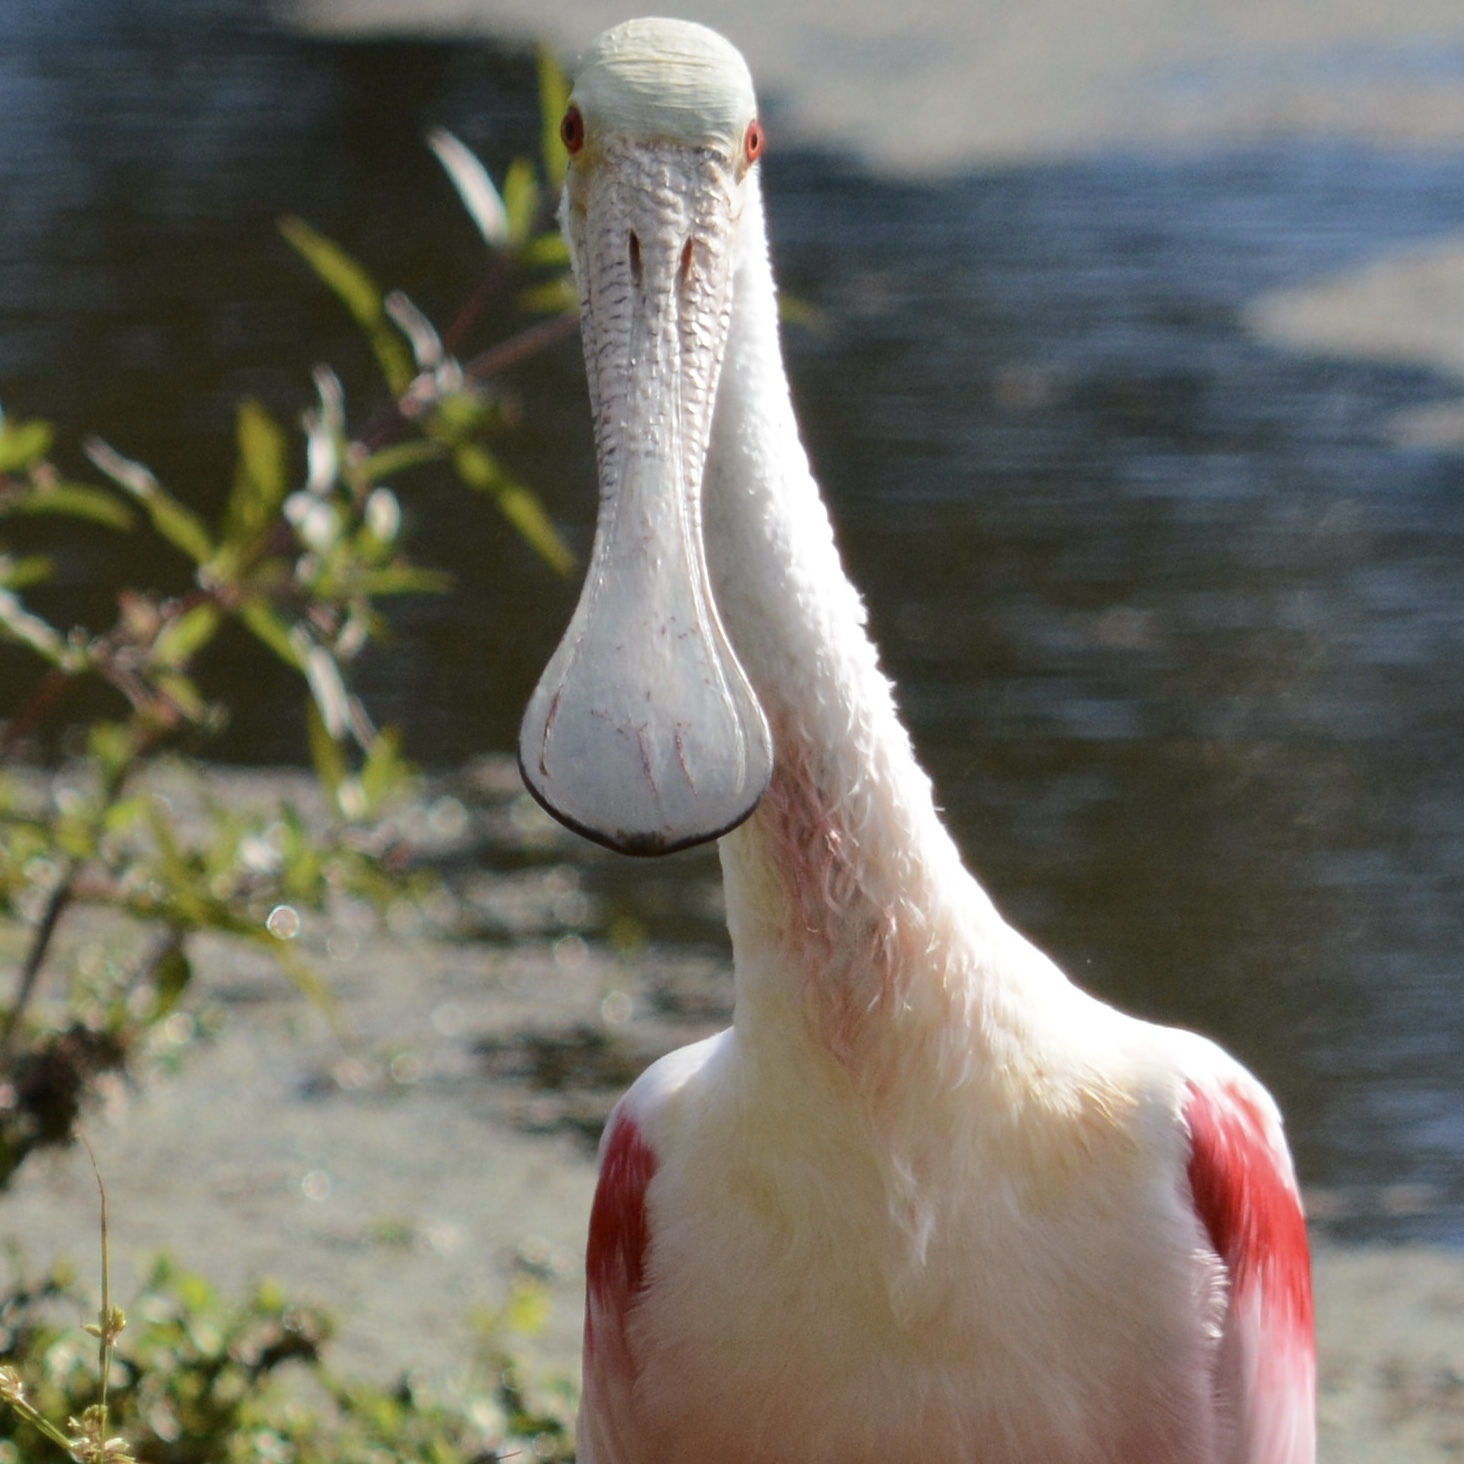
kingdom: Animalia
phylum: Chordata
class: Aves
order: Pelecaniformes
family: Threskiornithidae
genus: Platalea
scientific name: Platalea ajaja
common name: Roseate spoonbill
